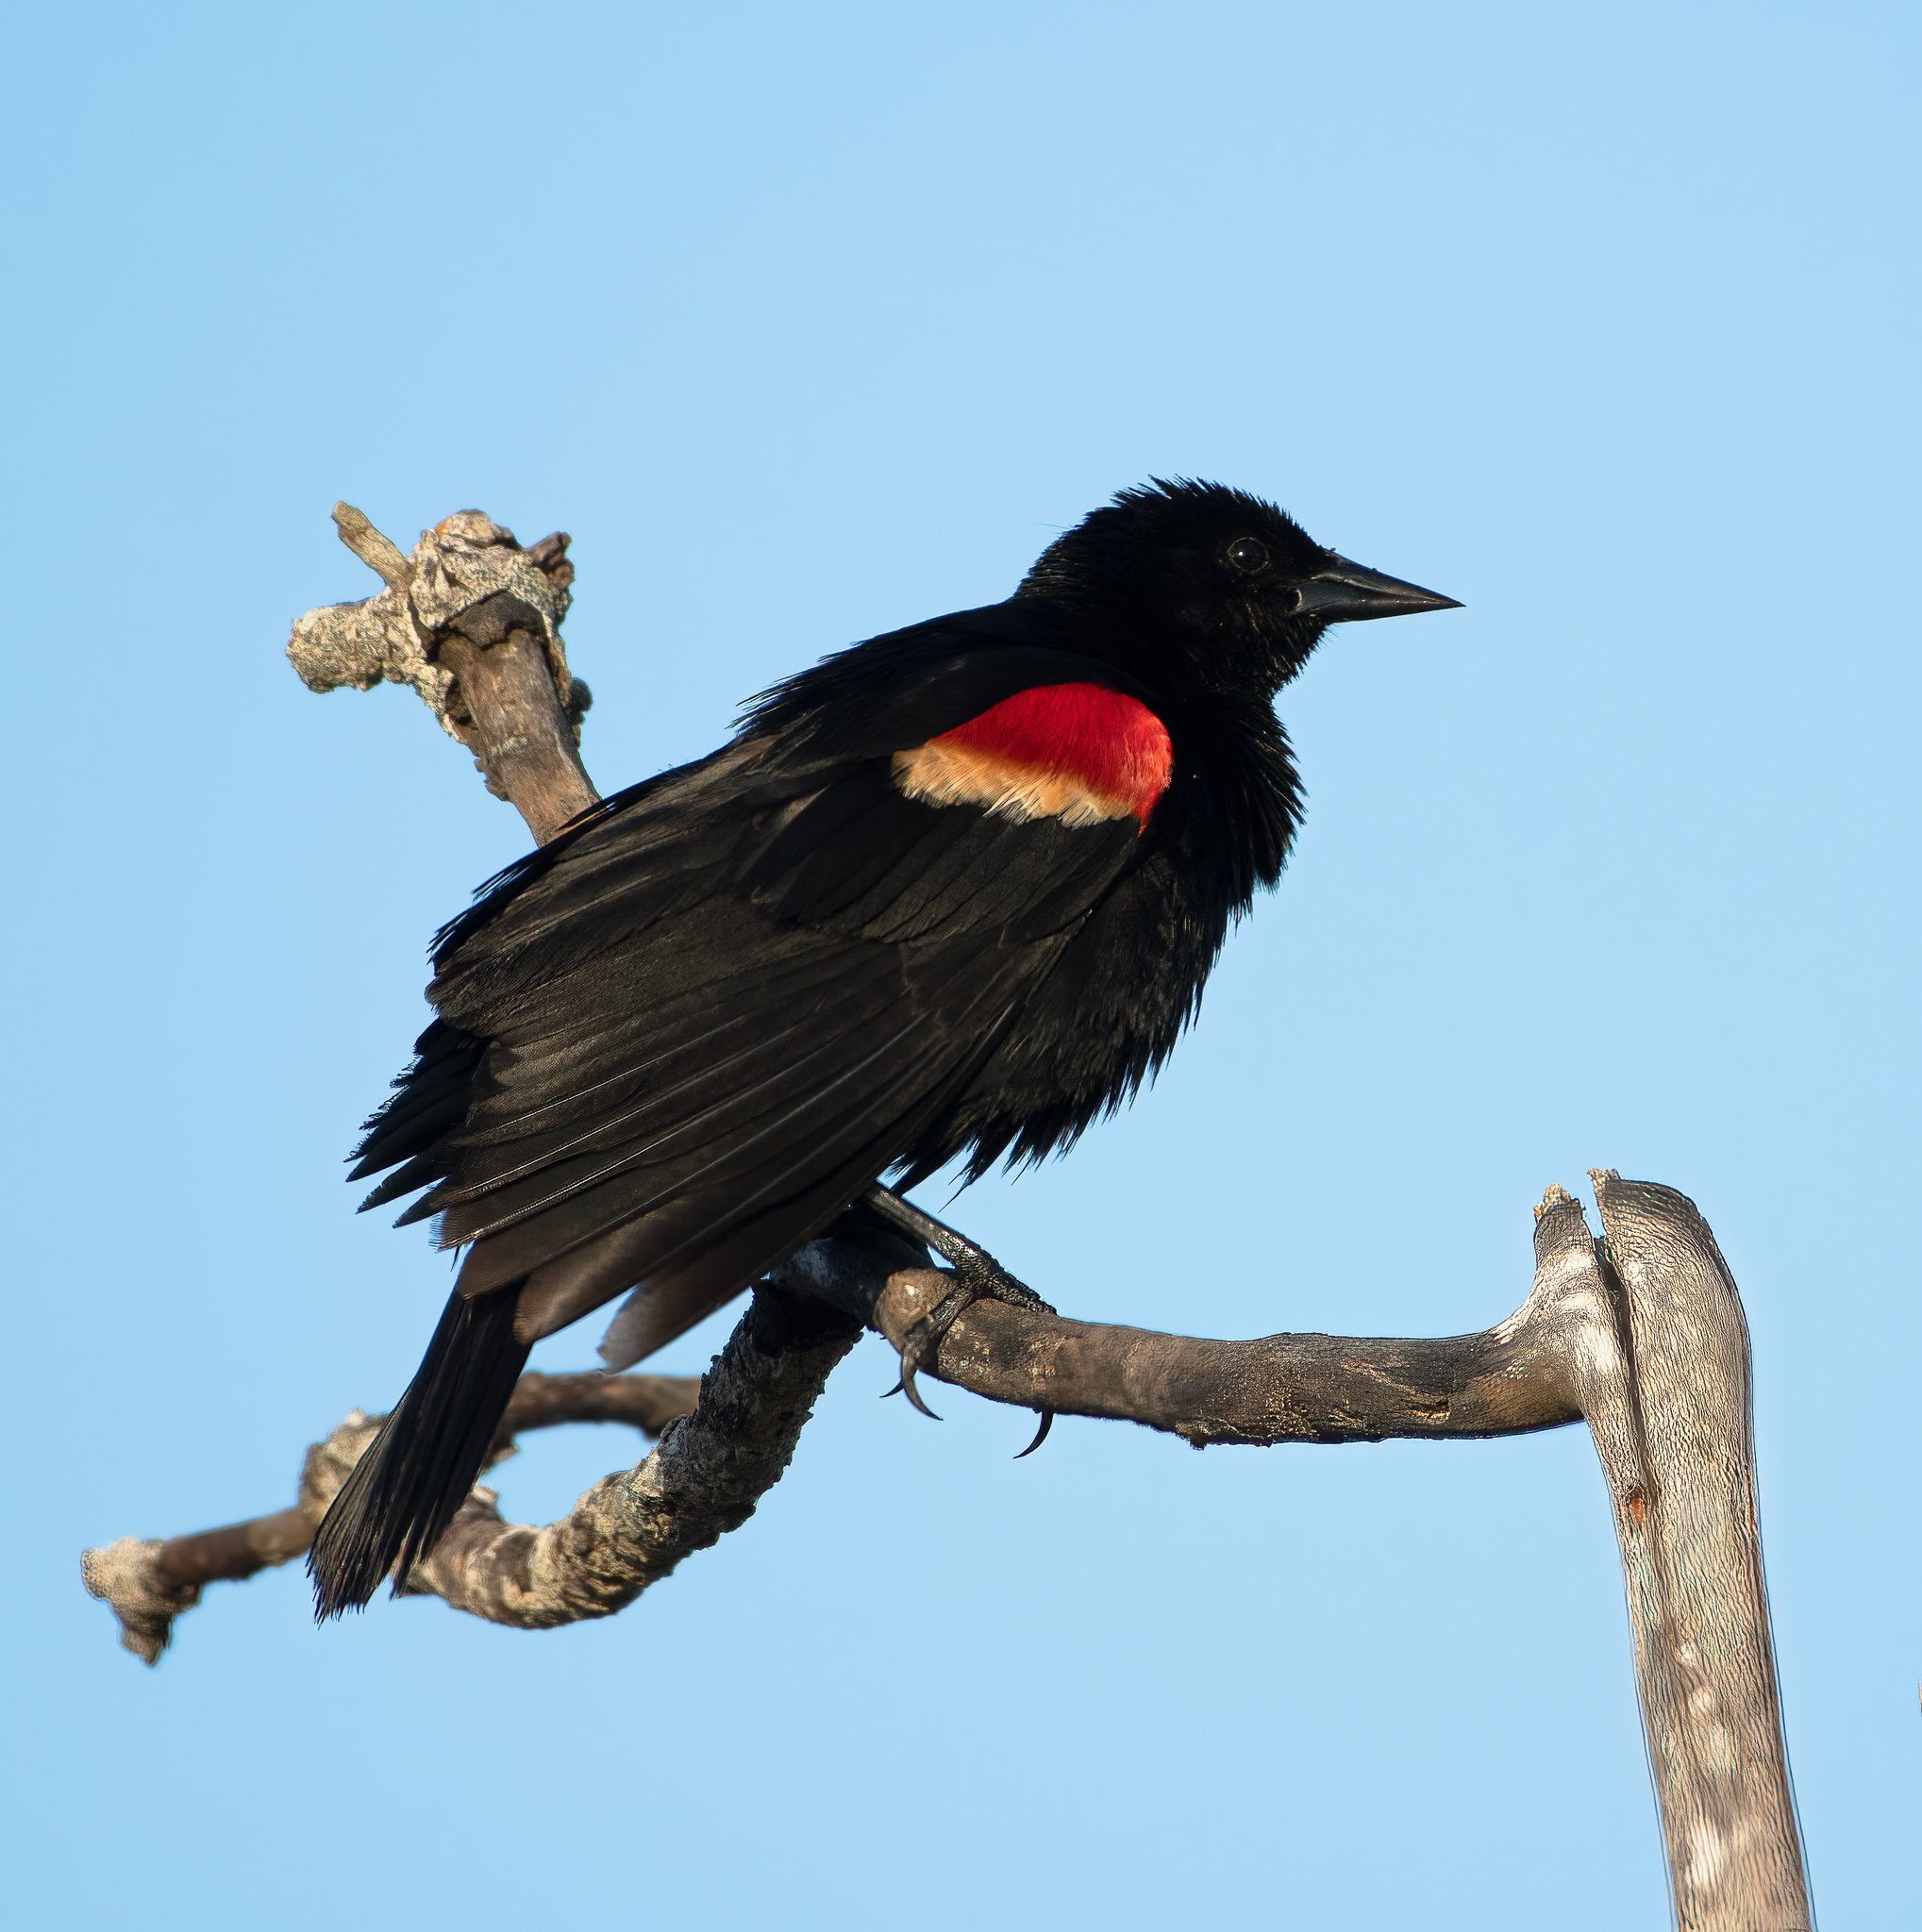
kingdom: Animalia
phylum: Chordata
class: Aves
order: Passeriformes
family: Icteridae
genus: Agelaius
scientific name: Agelaius phoeniceus
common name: Red-winged blackbird
